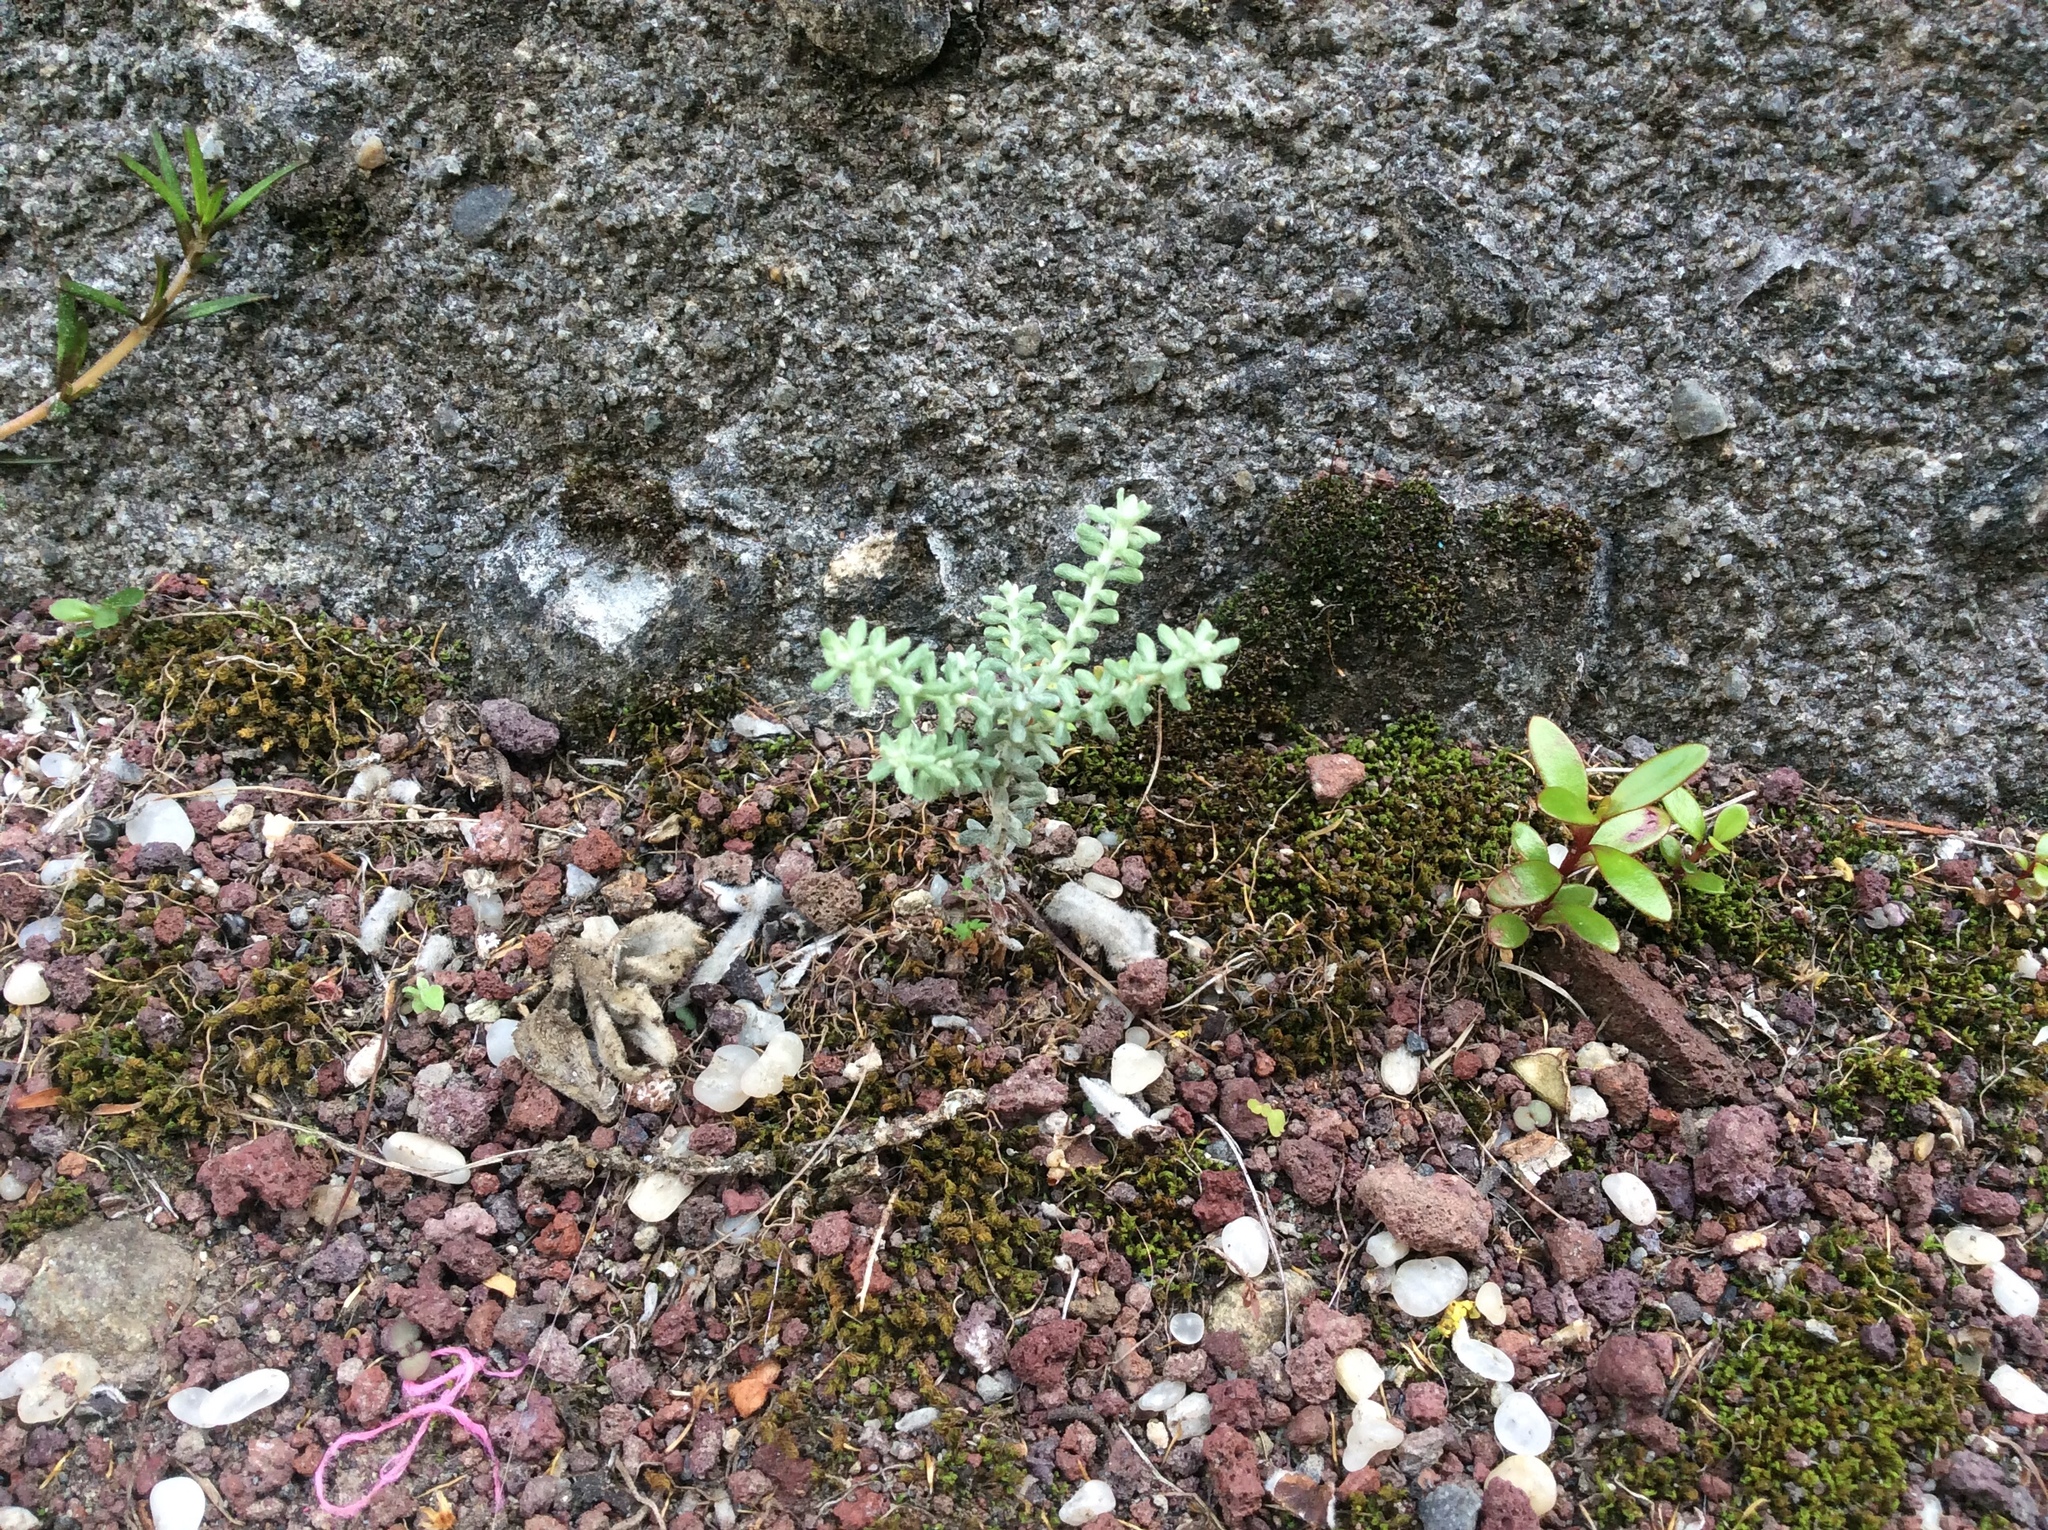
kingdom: Plantae
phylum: Tracheophyta
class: Magnoliopsida
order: Asterales
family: Asteraceae
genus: Ozothamnus
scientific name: Ozothamnus leptophyllus
